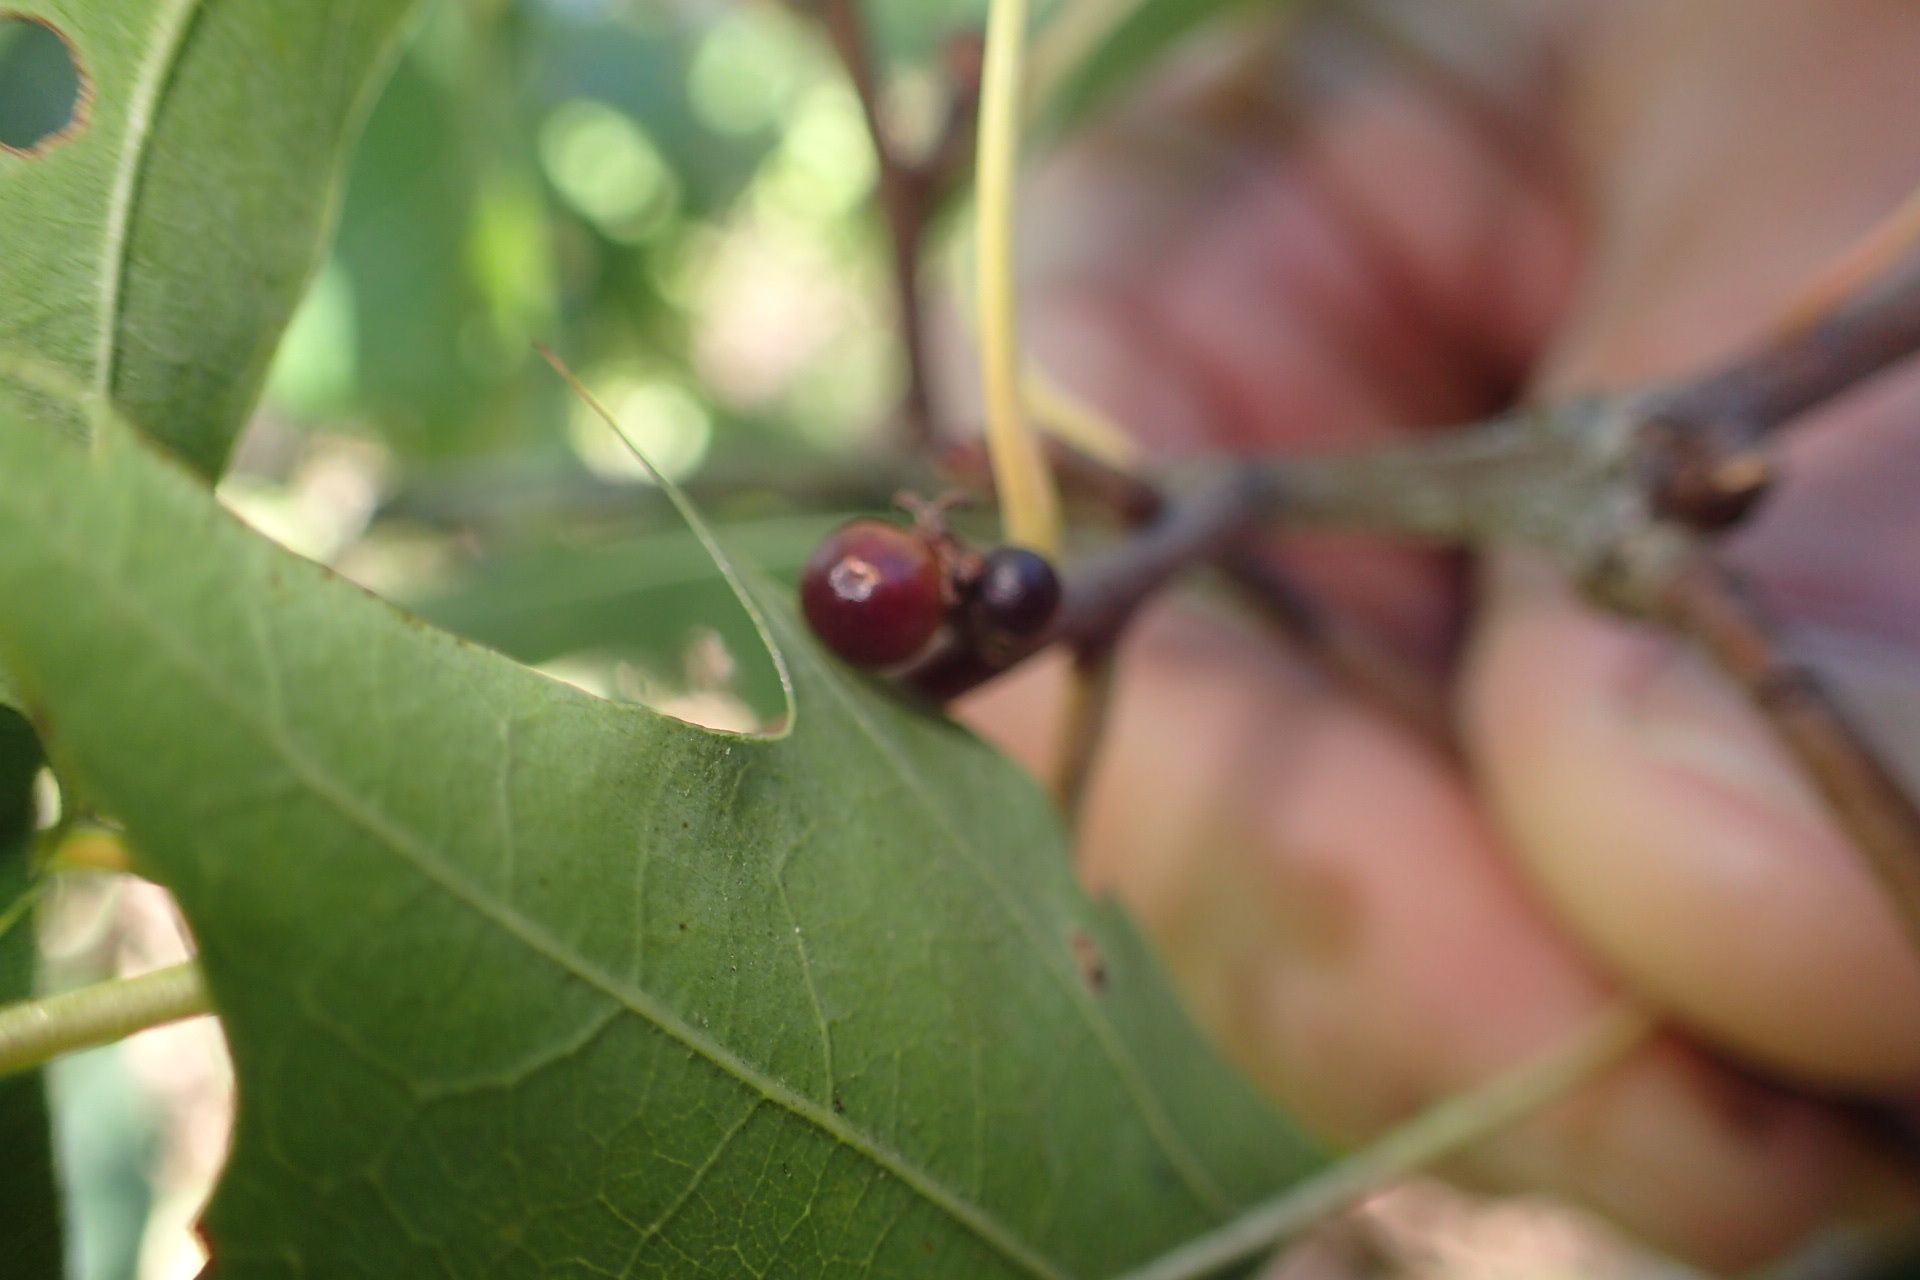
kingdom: Animalia
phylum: Arthropoda
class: Insecta
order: Hymenoptera
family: Cynipidae
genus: Callirhytis
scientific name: Callirhytis
